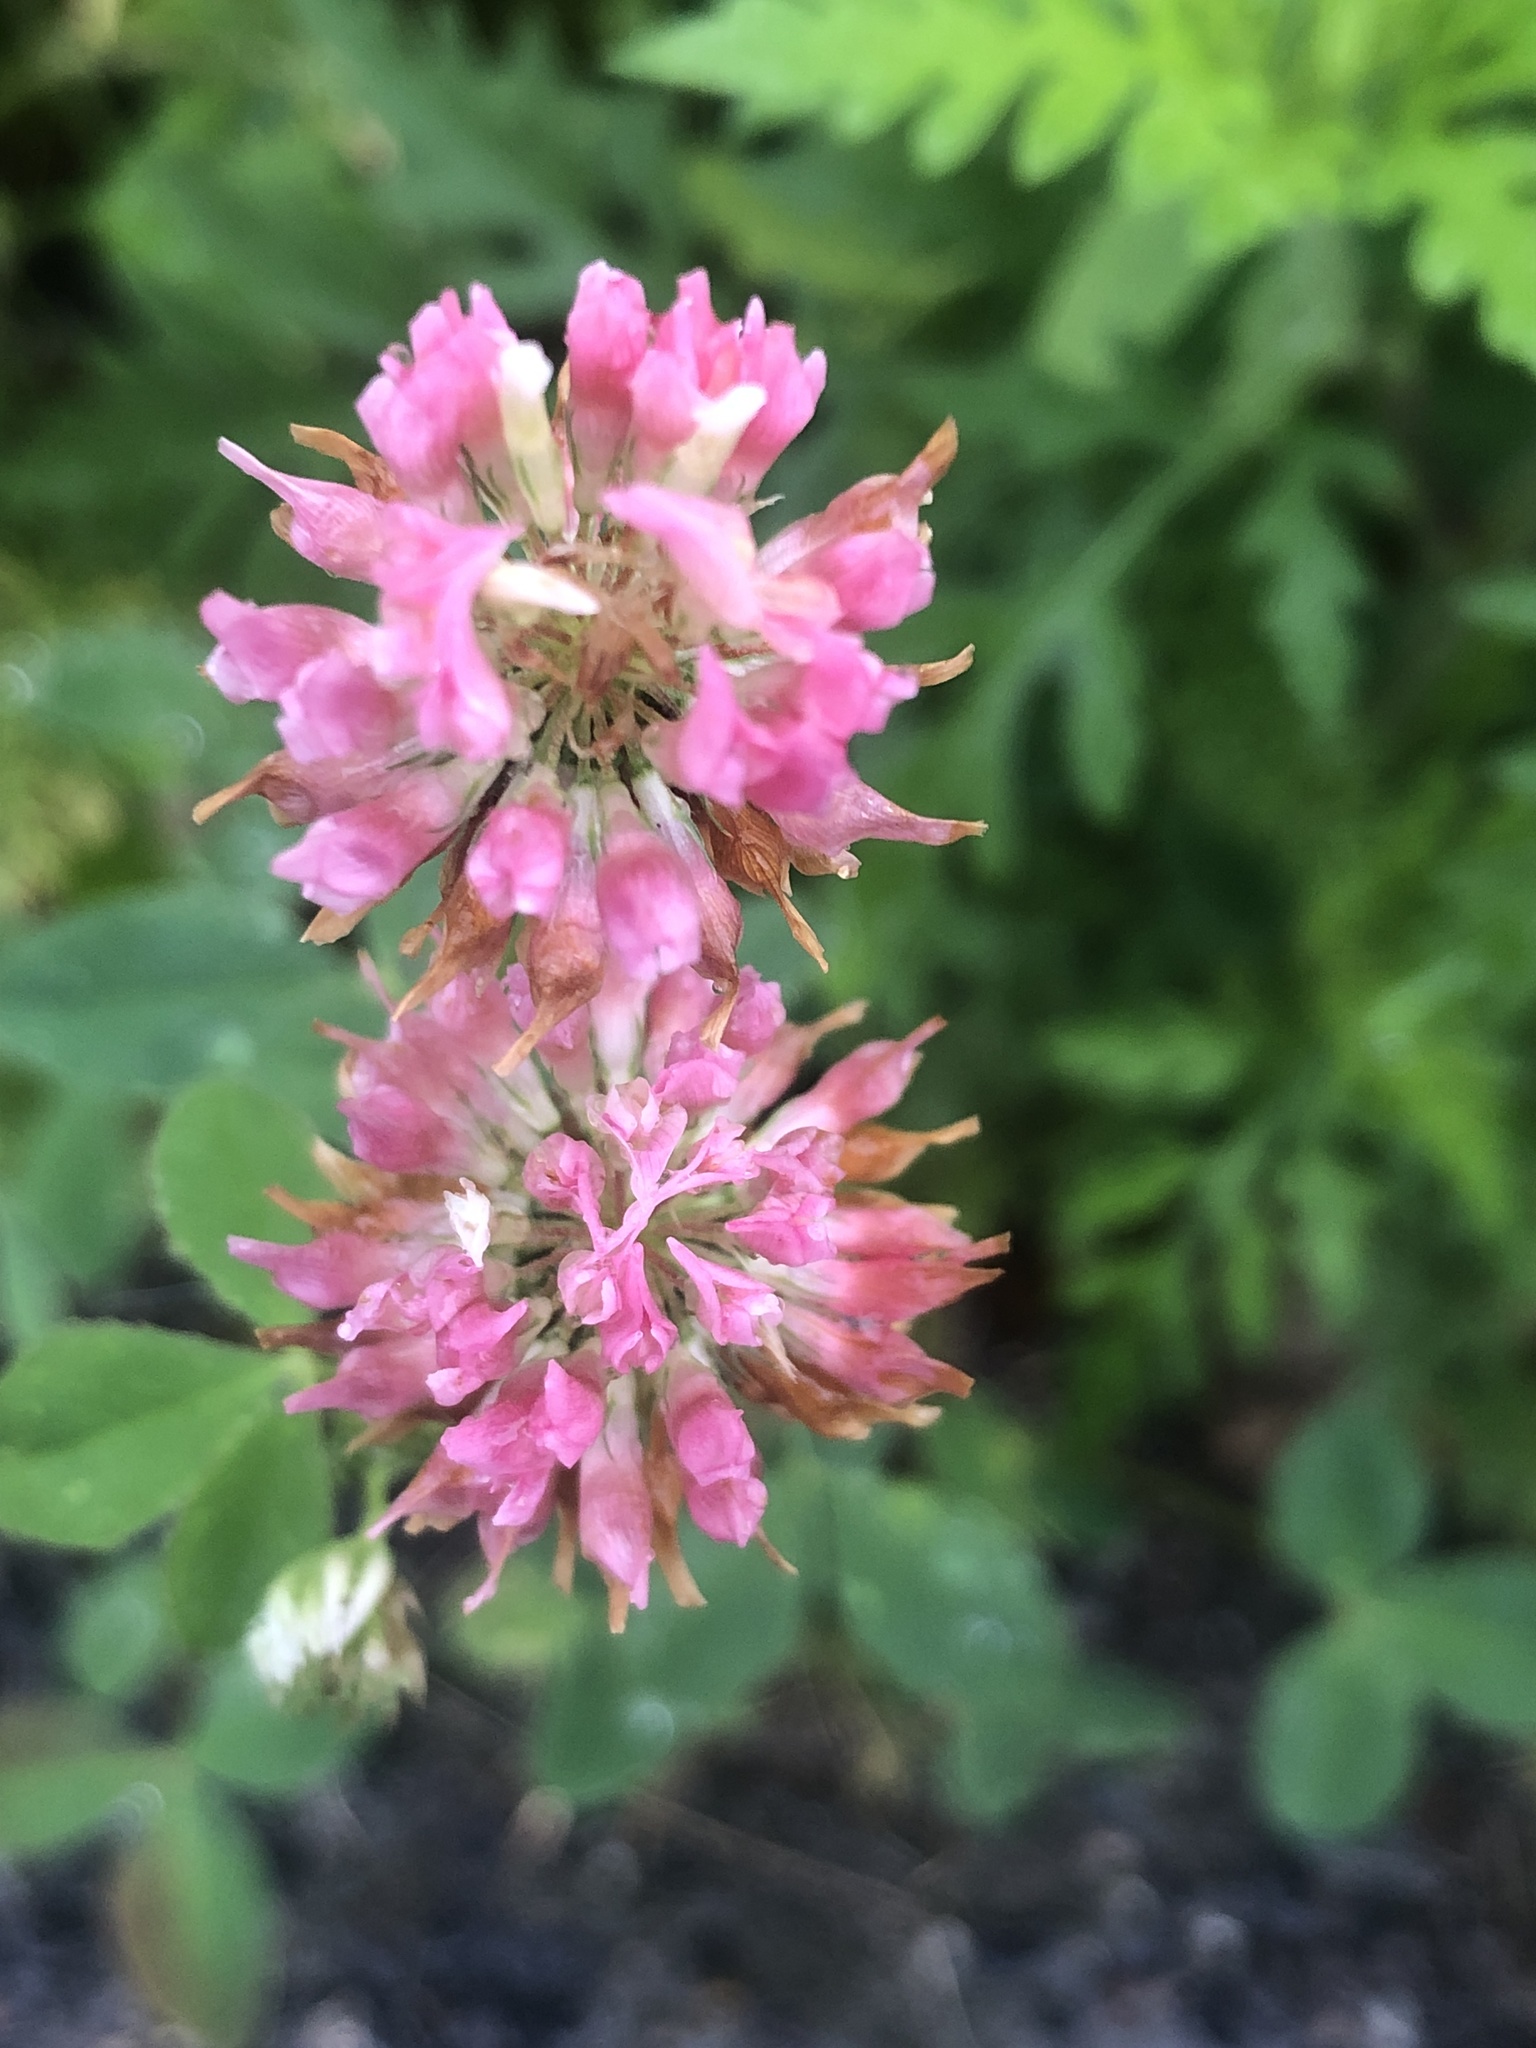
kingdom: Plantae
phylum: Tracheophyta
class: Magnoliopsida
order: Fabales
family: Fabaceae
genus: Trifolium
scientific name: Trifolium hybridum
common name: Alsike clover
